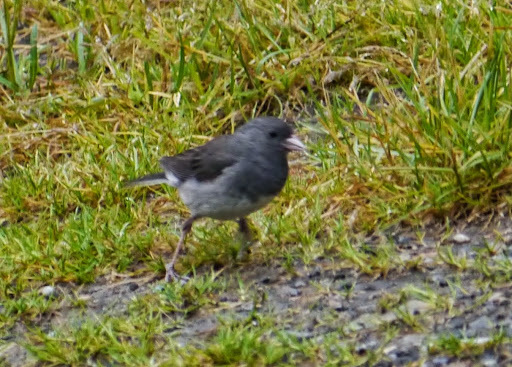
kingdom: Animalia
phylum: Chordata
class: Aves
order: Passeriformes
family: Passerellidae
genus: Junco
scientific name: Junco hyemalis
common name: Dark-eyed junco
